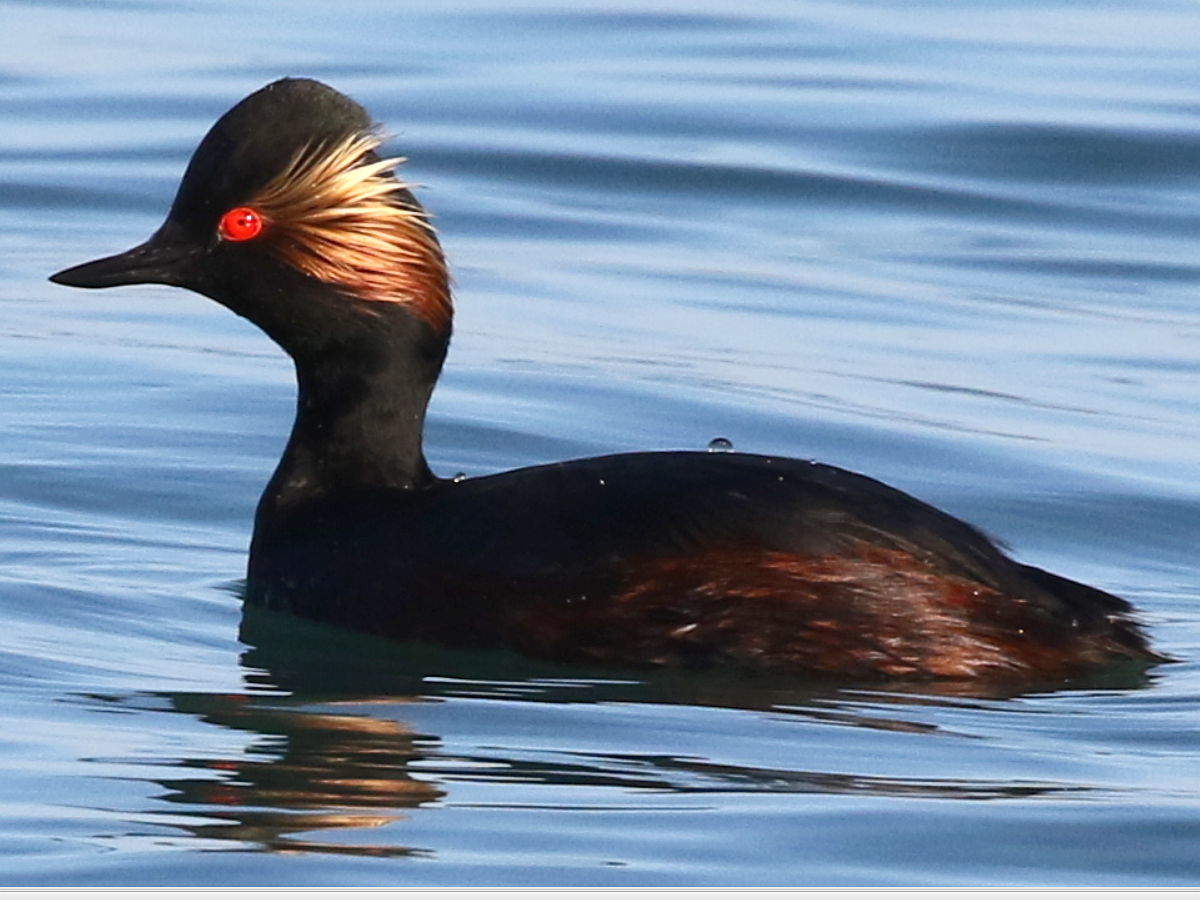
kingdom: Animalia
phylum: Chordata
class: Aves
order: Podicipediformes
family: Podicipedidae
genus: Podiceps
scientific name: Podiceps nigricollis
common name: Black-necked grebe
